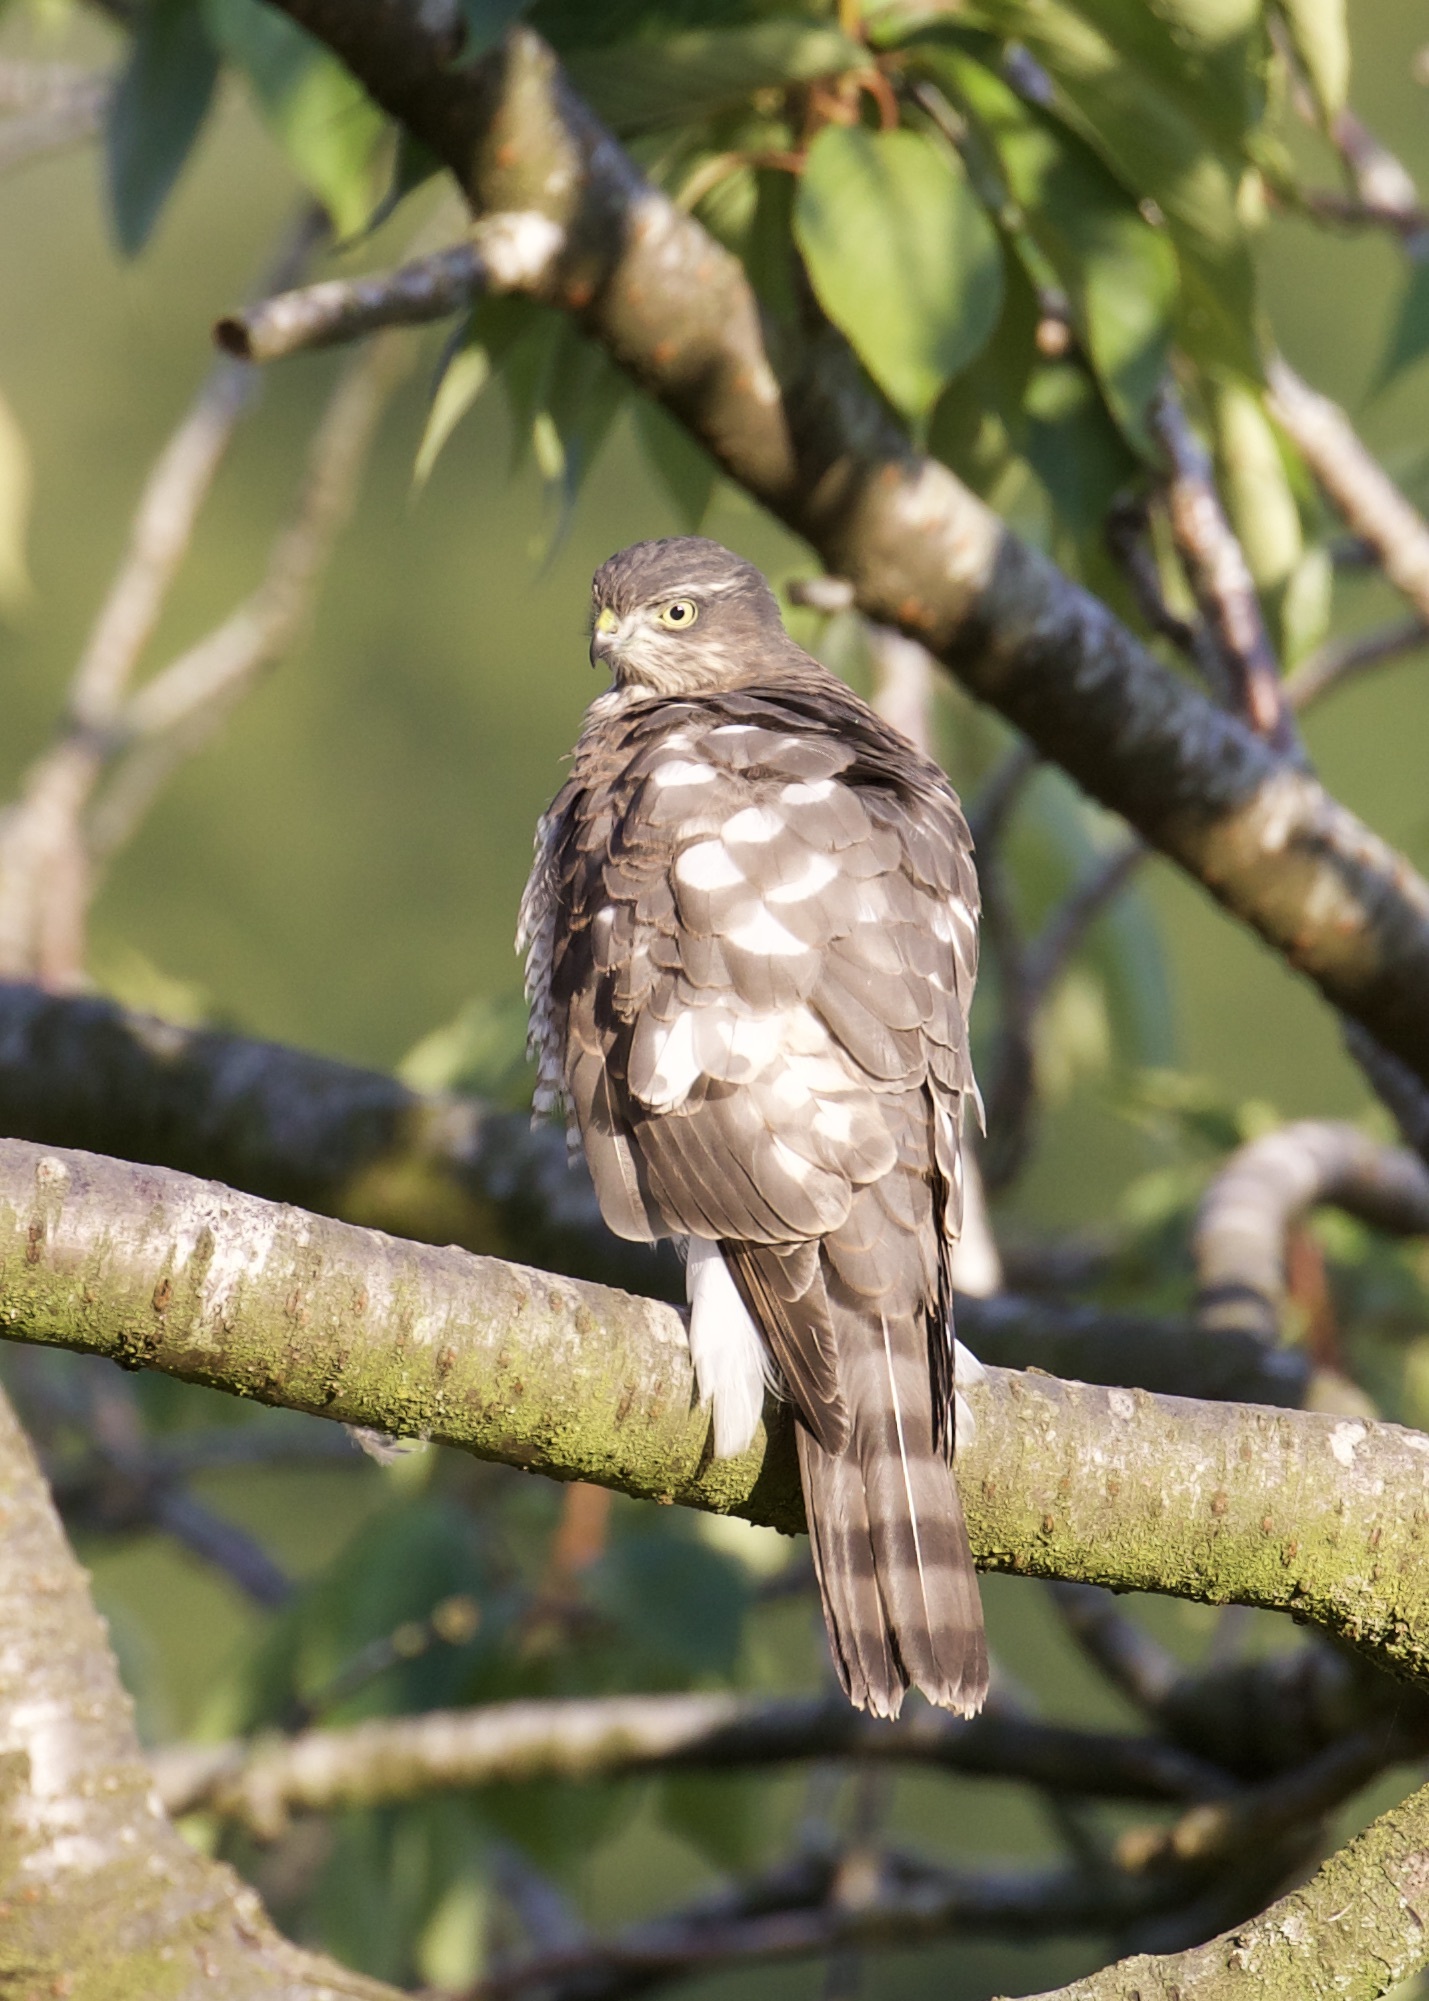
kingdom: Animalia
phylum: Chordata
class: Aves
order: Accipitriformes
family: Accipitridae
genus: Accipiter
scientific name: Accipiter nisus
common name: Eurasian sparrowhawk
